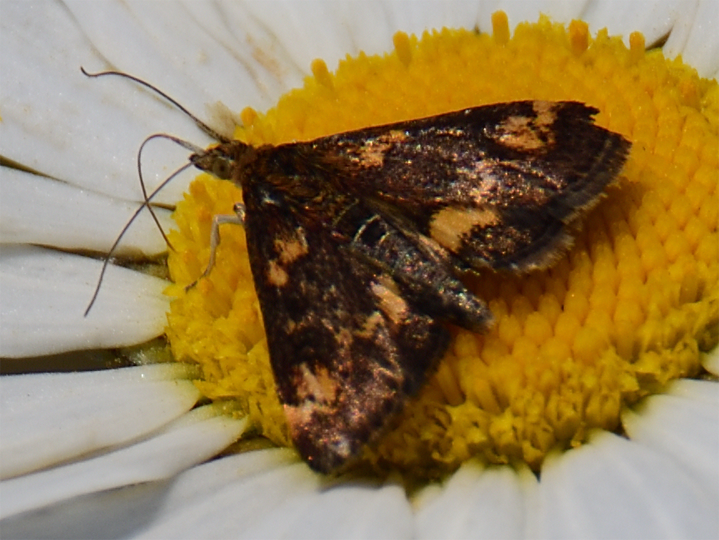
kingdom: Animalia
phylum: Arthropoda
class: Insecta
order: Lepidoptera
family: Crambidae
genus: Pyrausta
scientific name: Pyrausta orphisalis
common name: Orange mint moth
